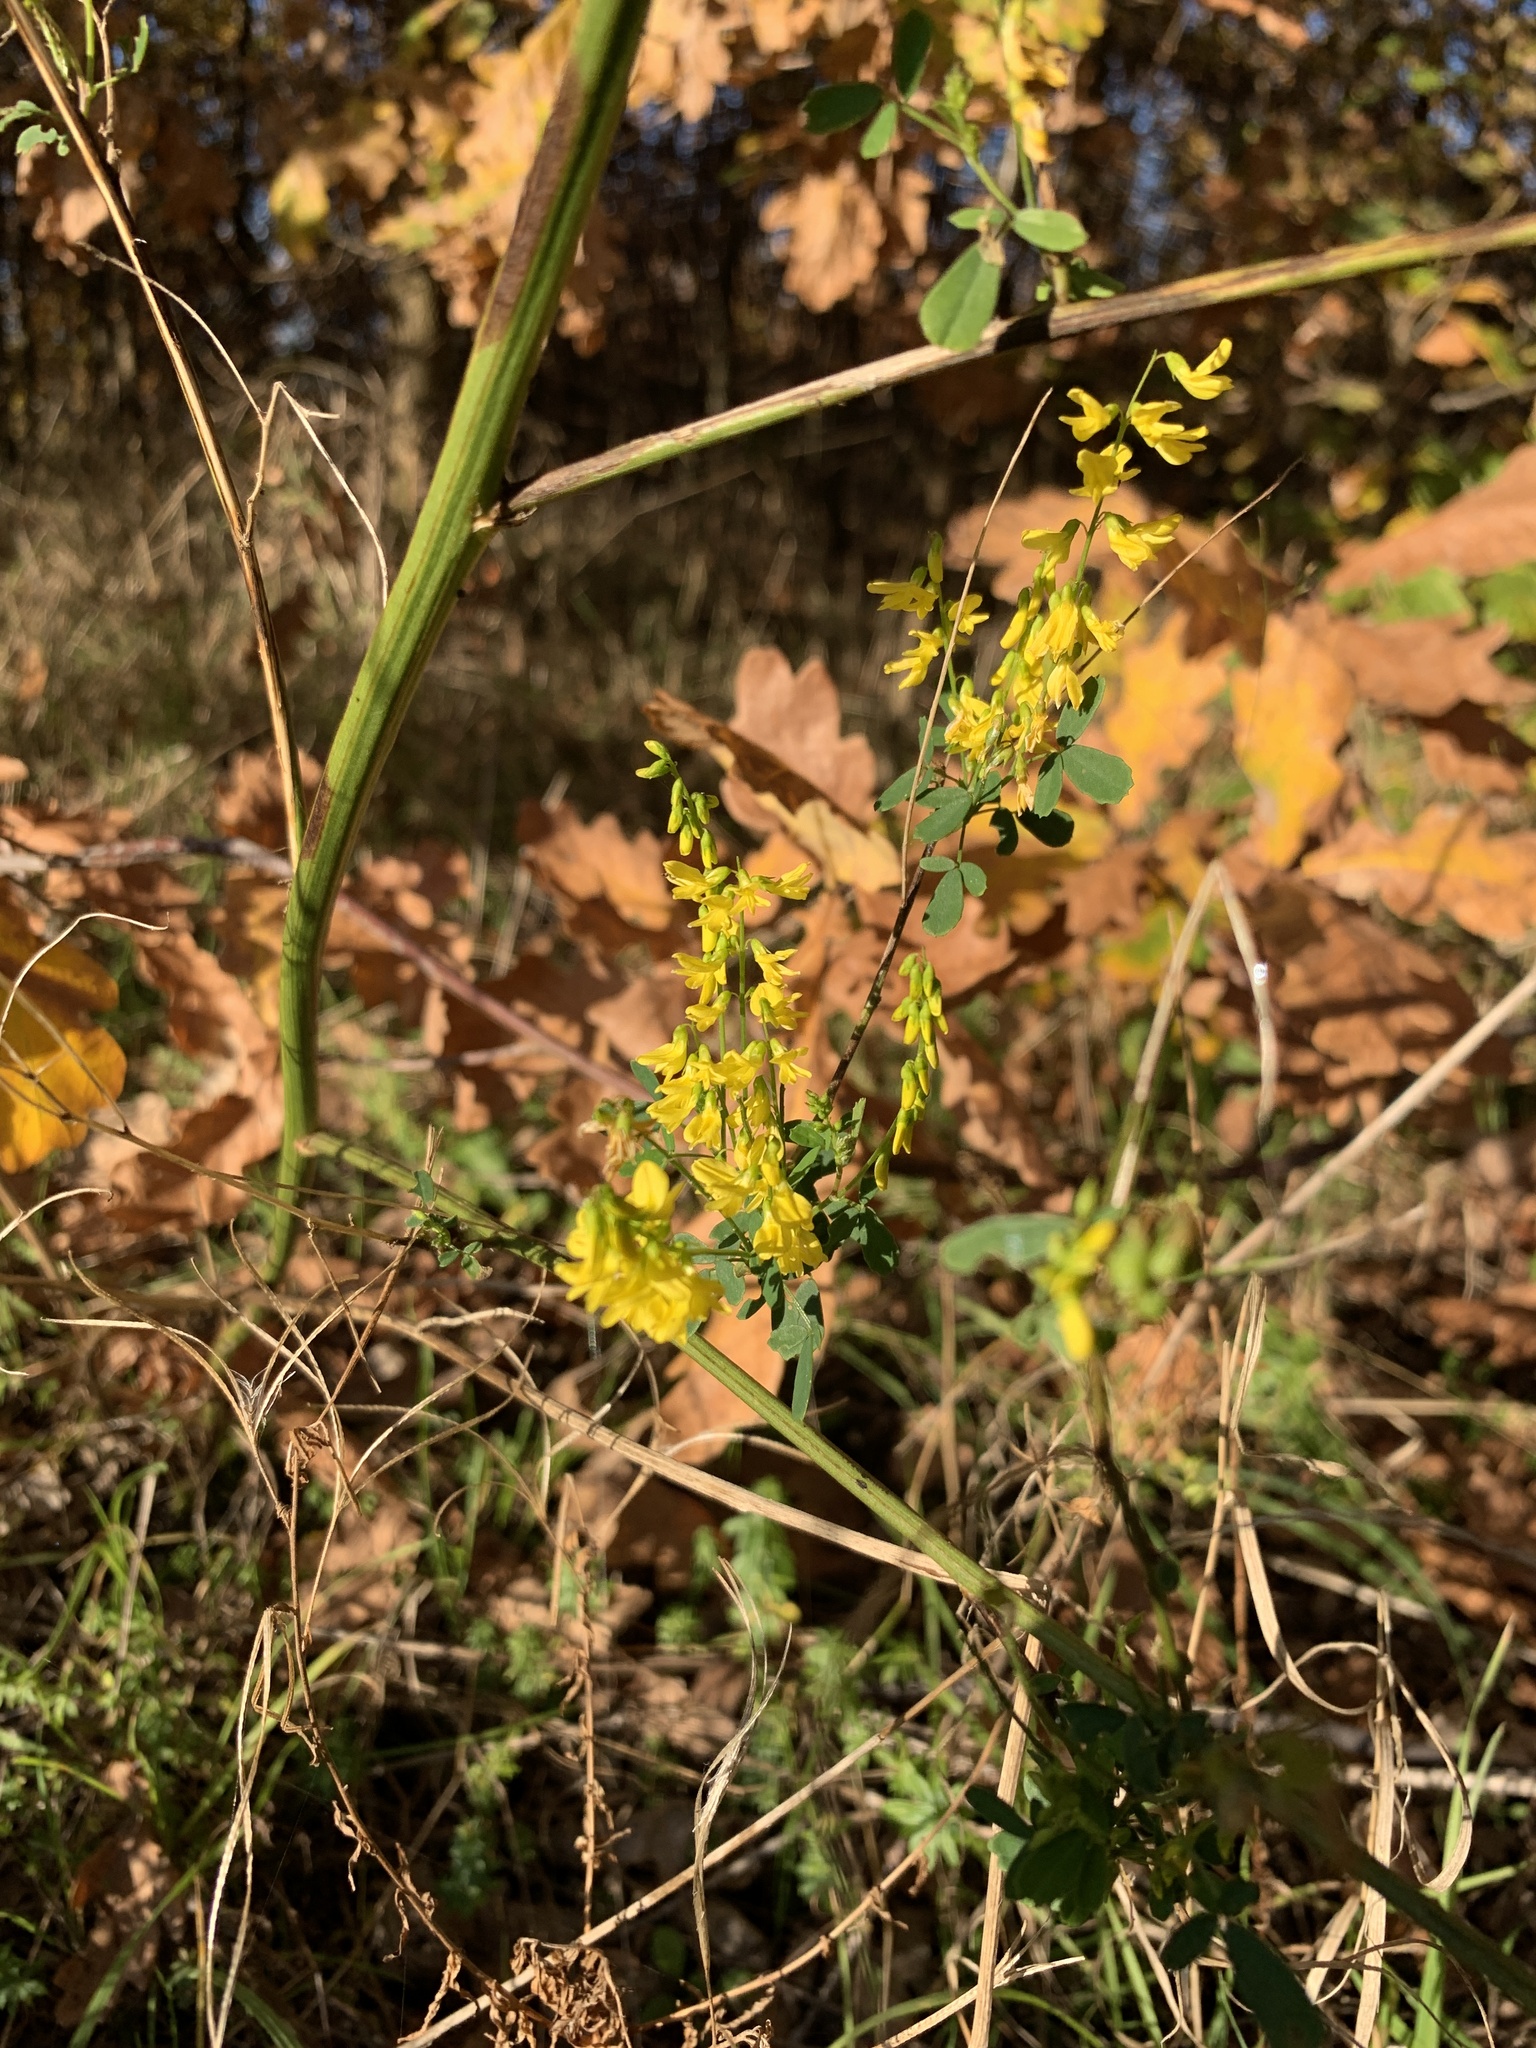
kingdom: Plantae
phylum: Tracheophyta
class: Magnoliopsida
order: Fabales
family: Fabaceae
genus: Melilotus
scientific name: Melilotus officinalis
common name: Sweetclover
